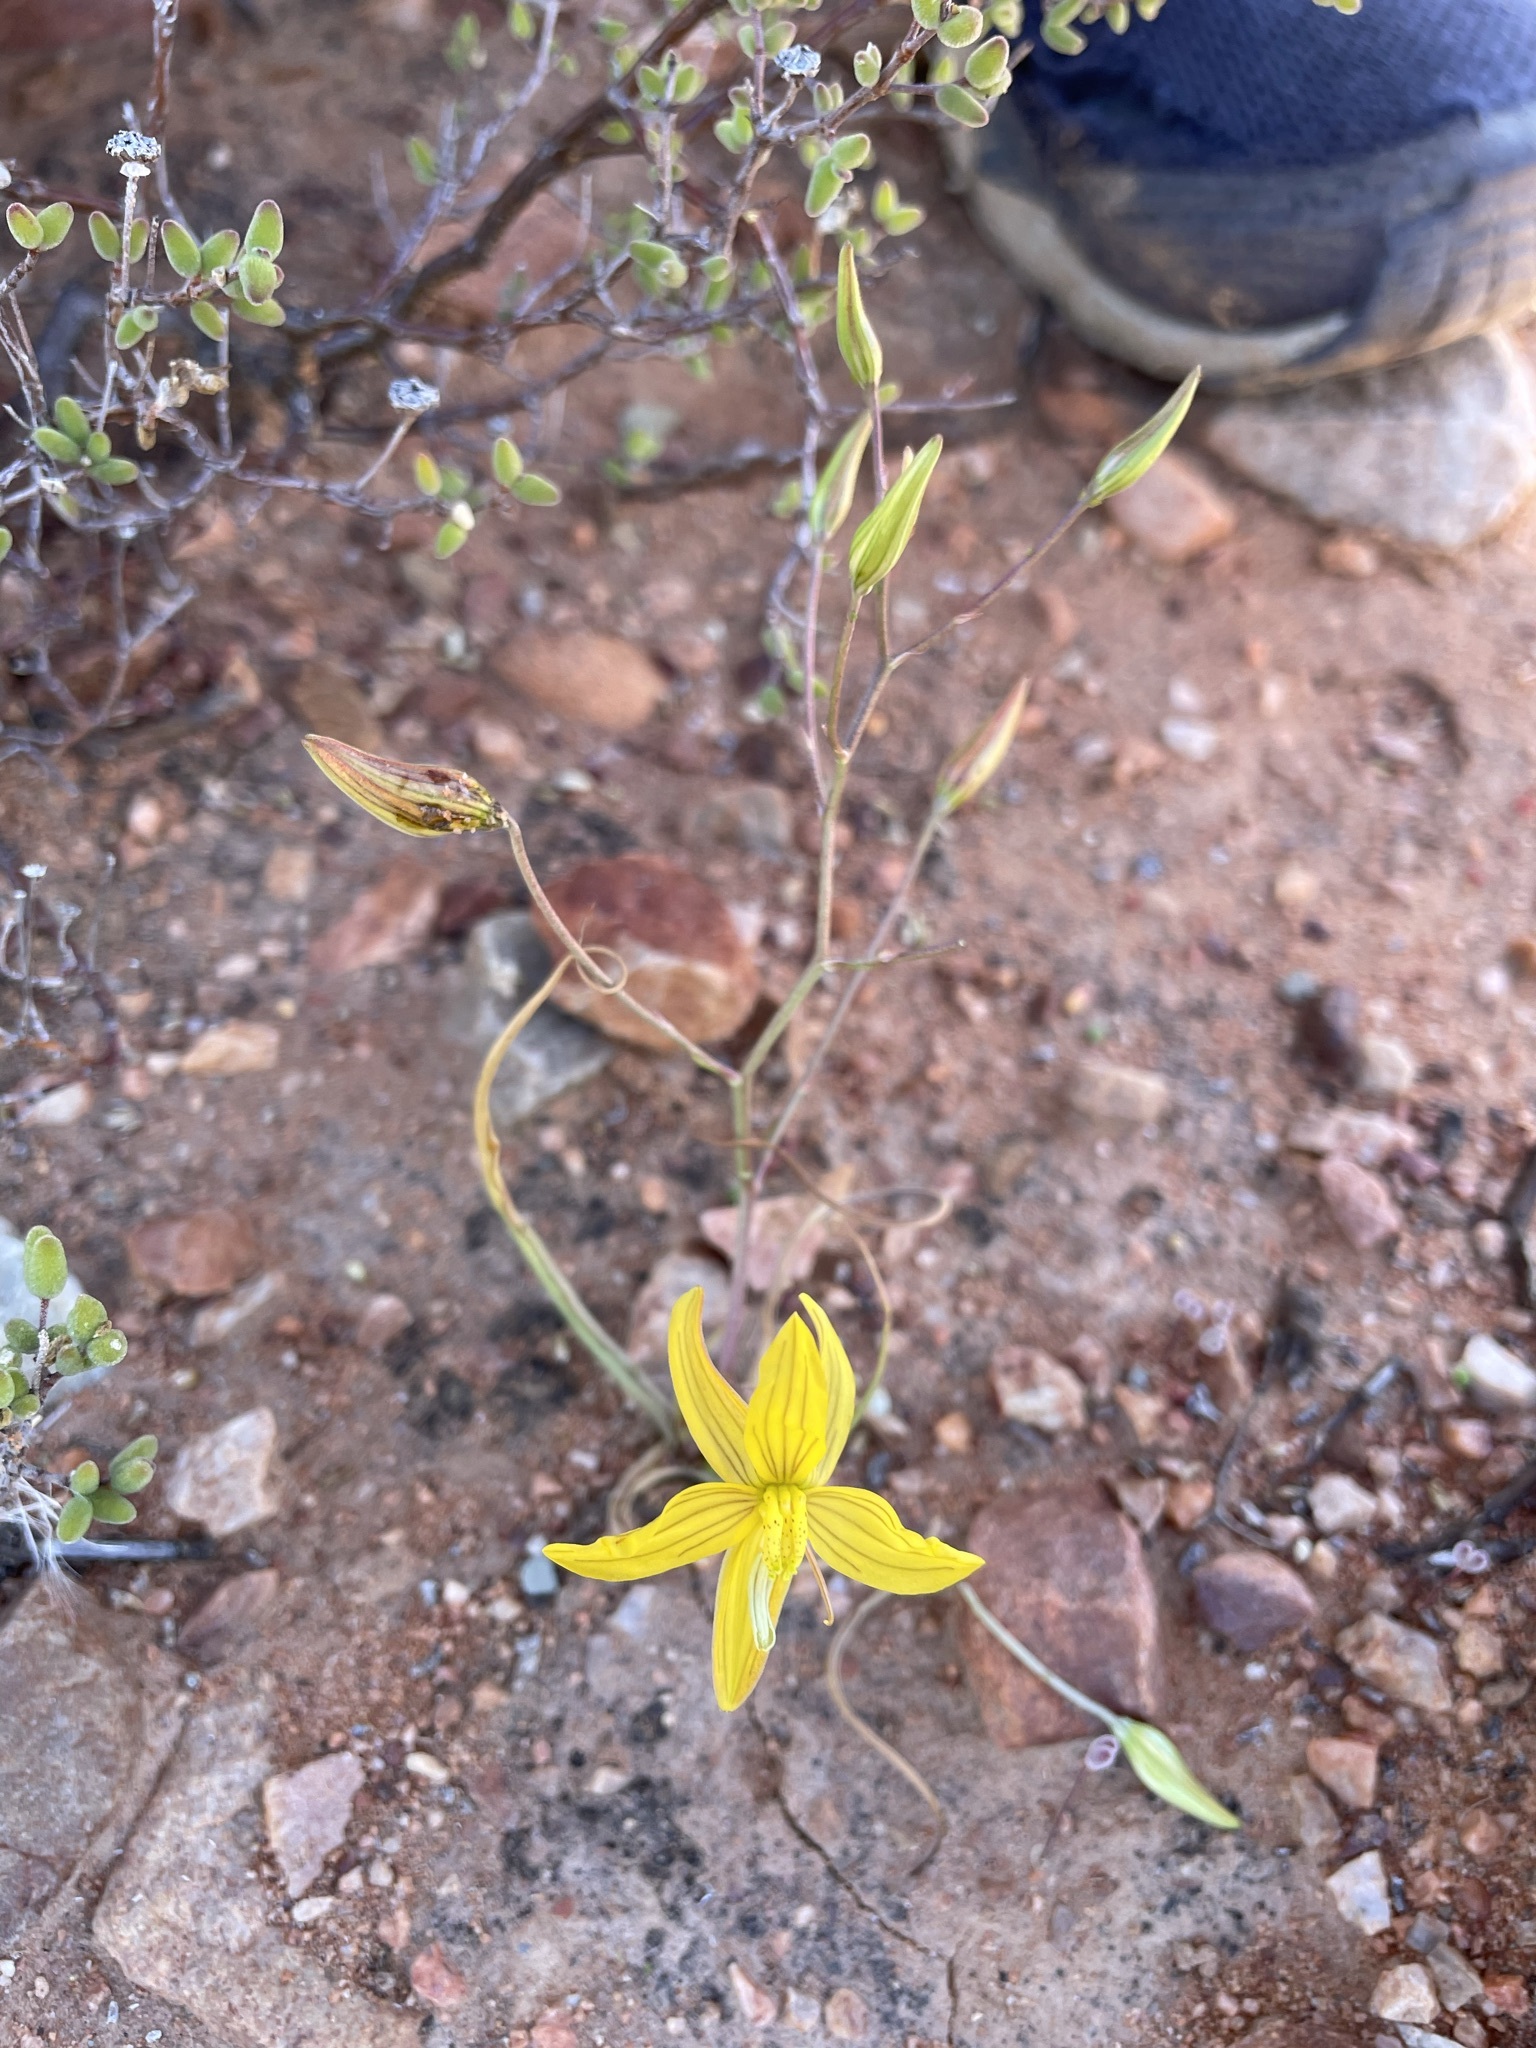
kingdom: Plantae
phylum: Tracheophyta
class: Liliopsida
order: Asparagales
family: Tecophilaeaceae
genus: Cyanella
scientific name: Cyanella lutea
